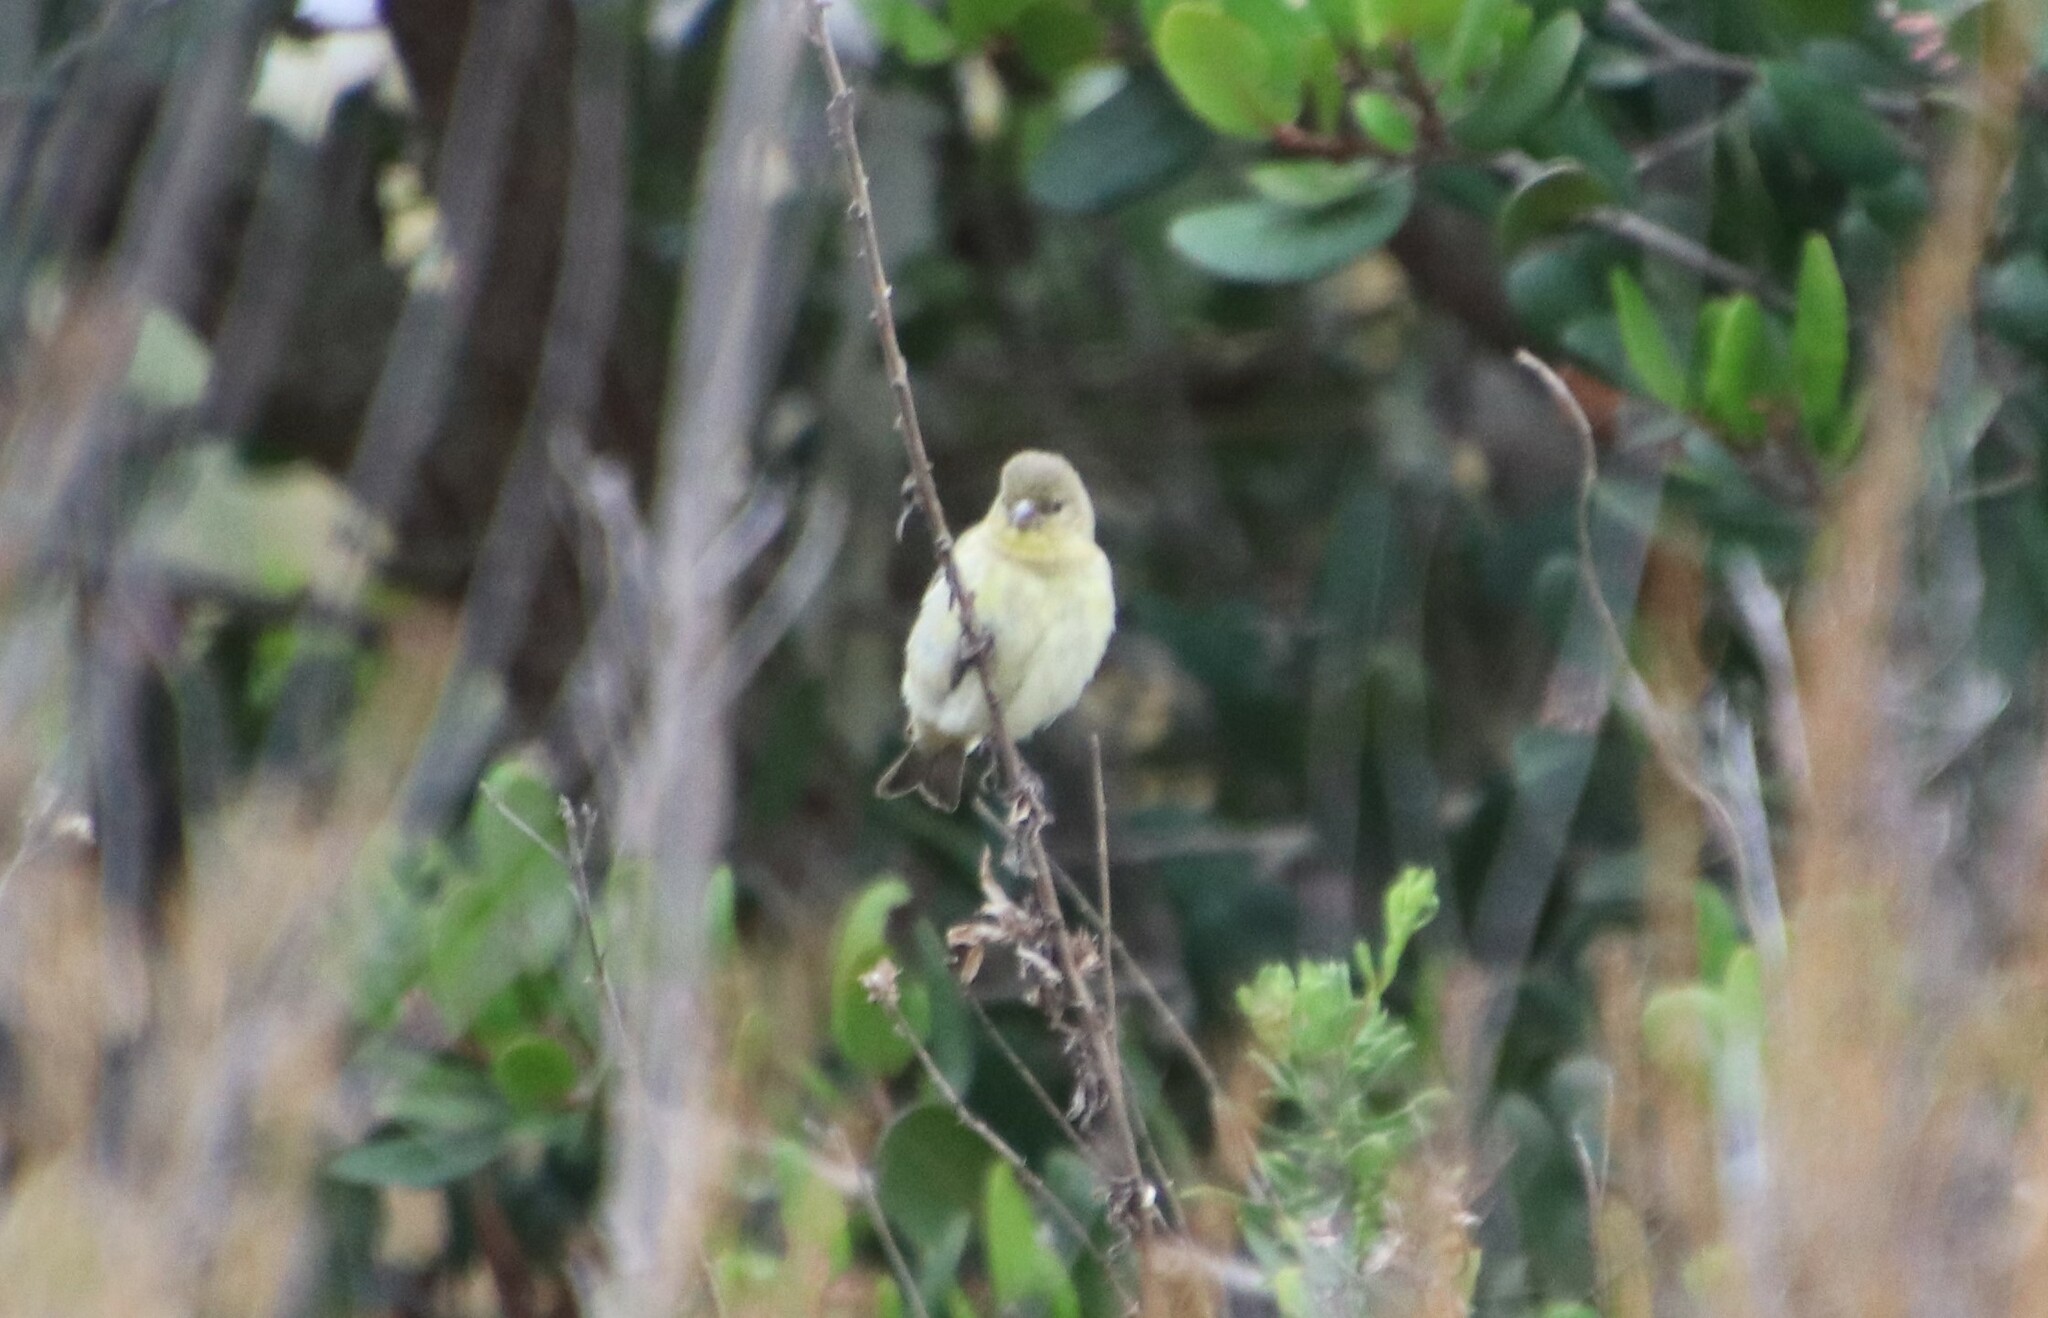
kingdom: Animalia
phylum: Chordata
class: Aves
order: Passeriformes
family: Fringillidae
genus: Spinus
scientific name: Spinus psaltria
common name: Lesser goldfinch
